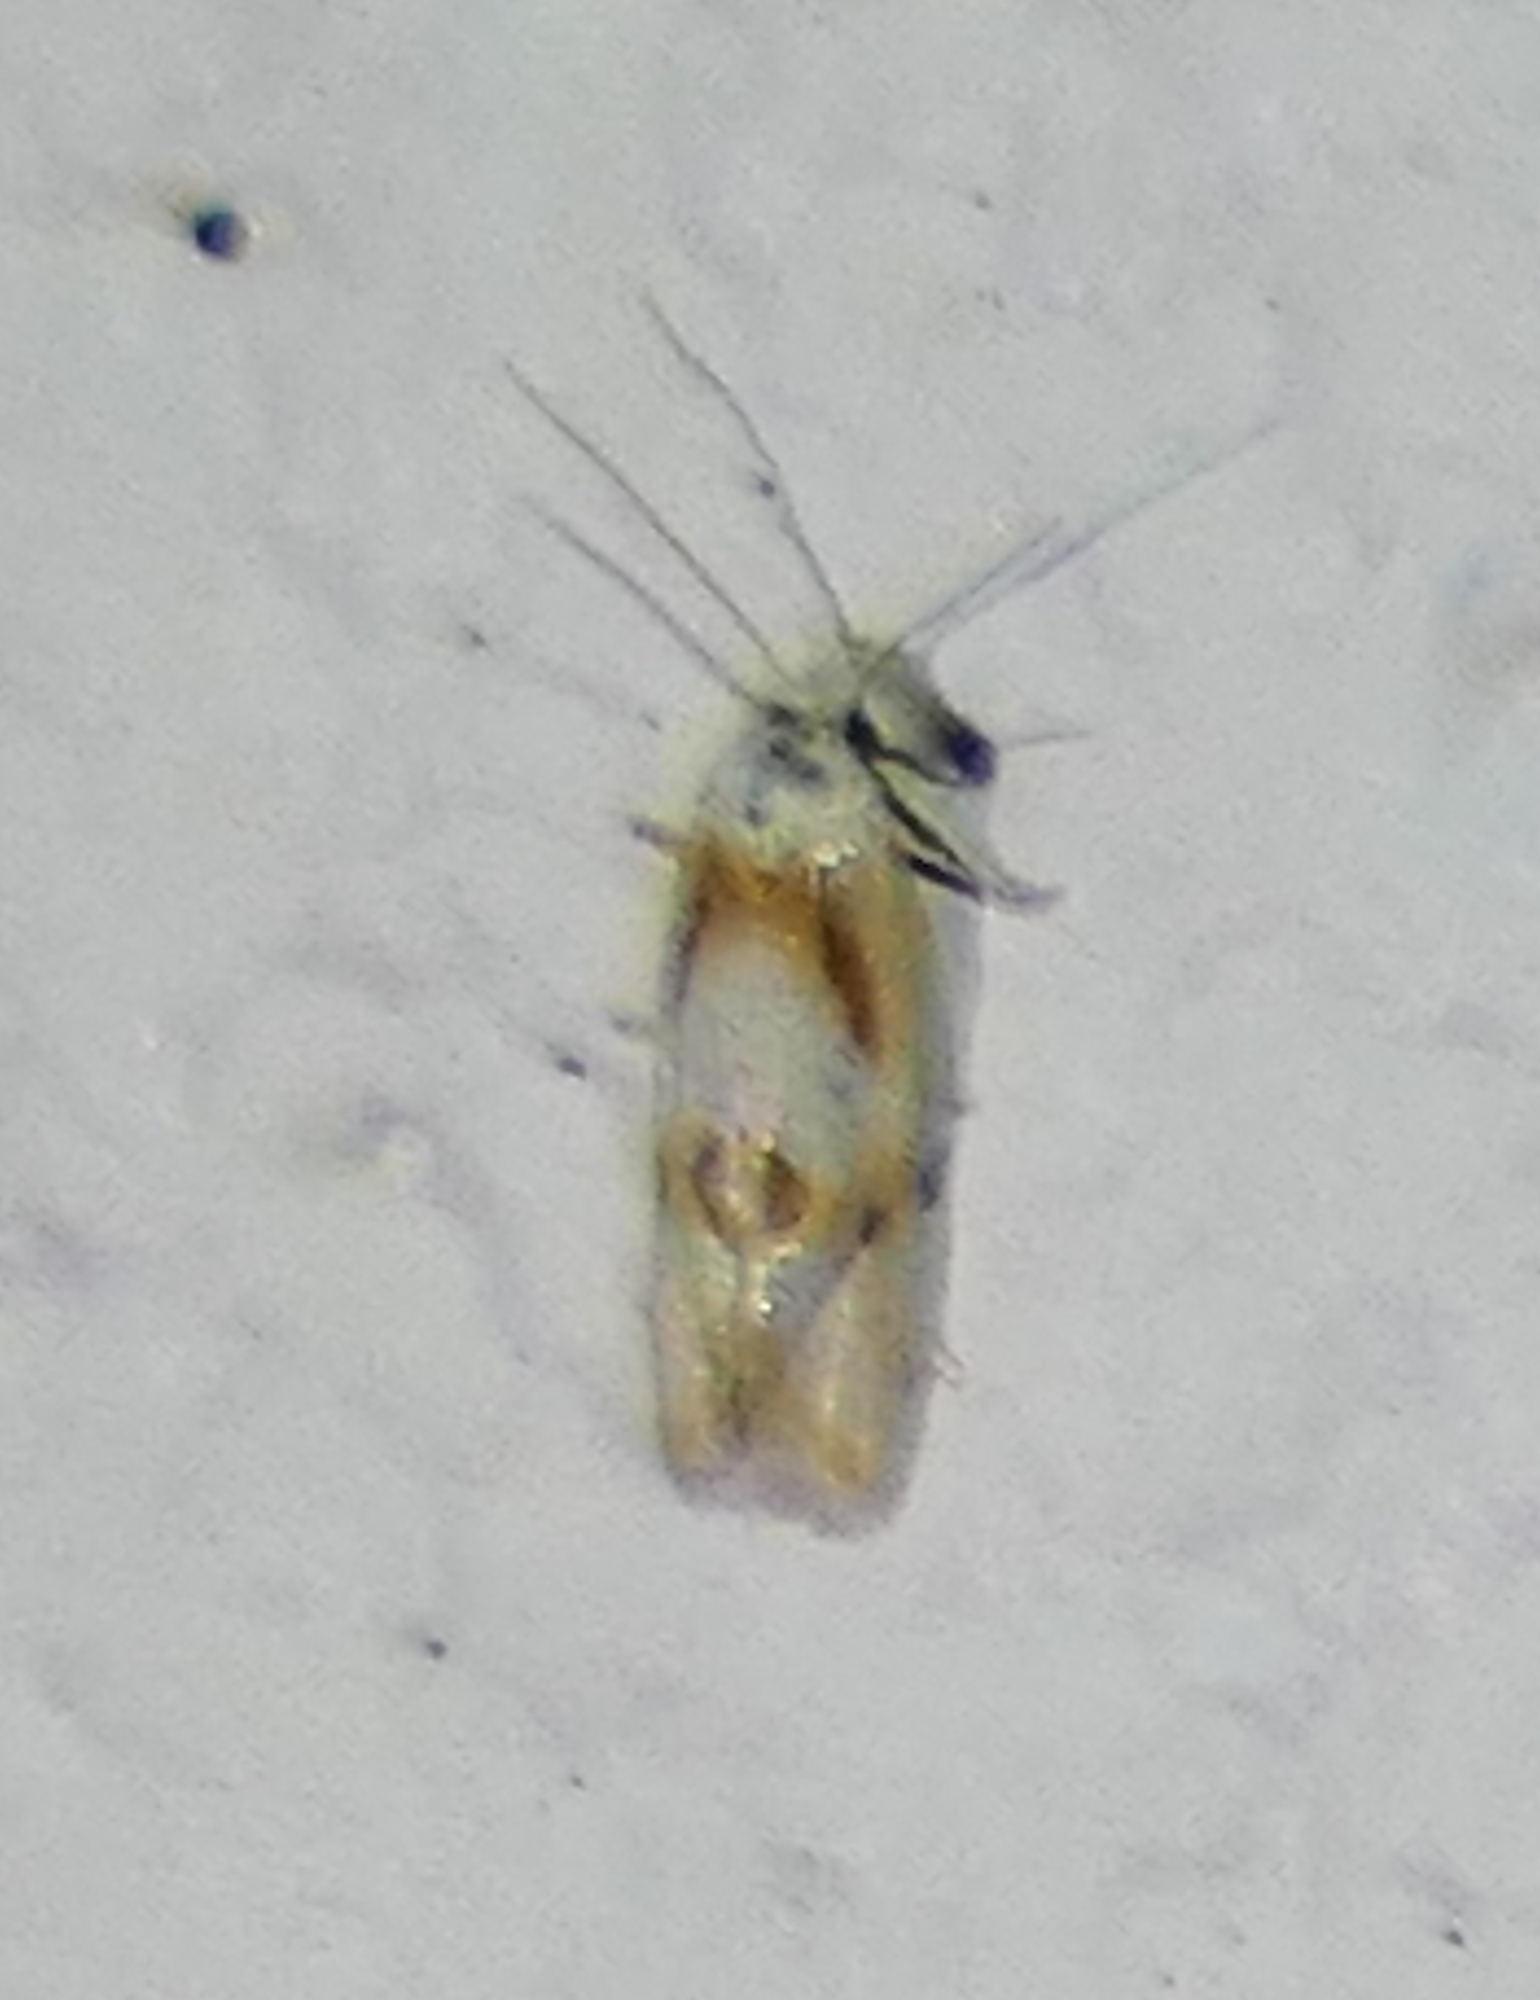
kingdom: Animalia
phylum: Arthropoda
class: Insecta
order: Lepidoptera
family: Tortricidae
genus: Aethes
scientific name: Aethes seriatana
